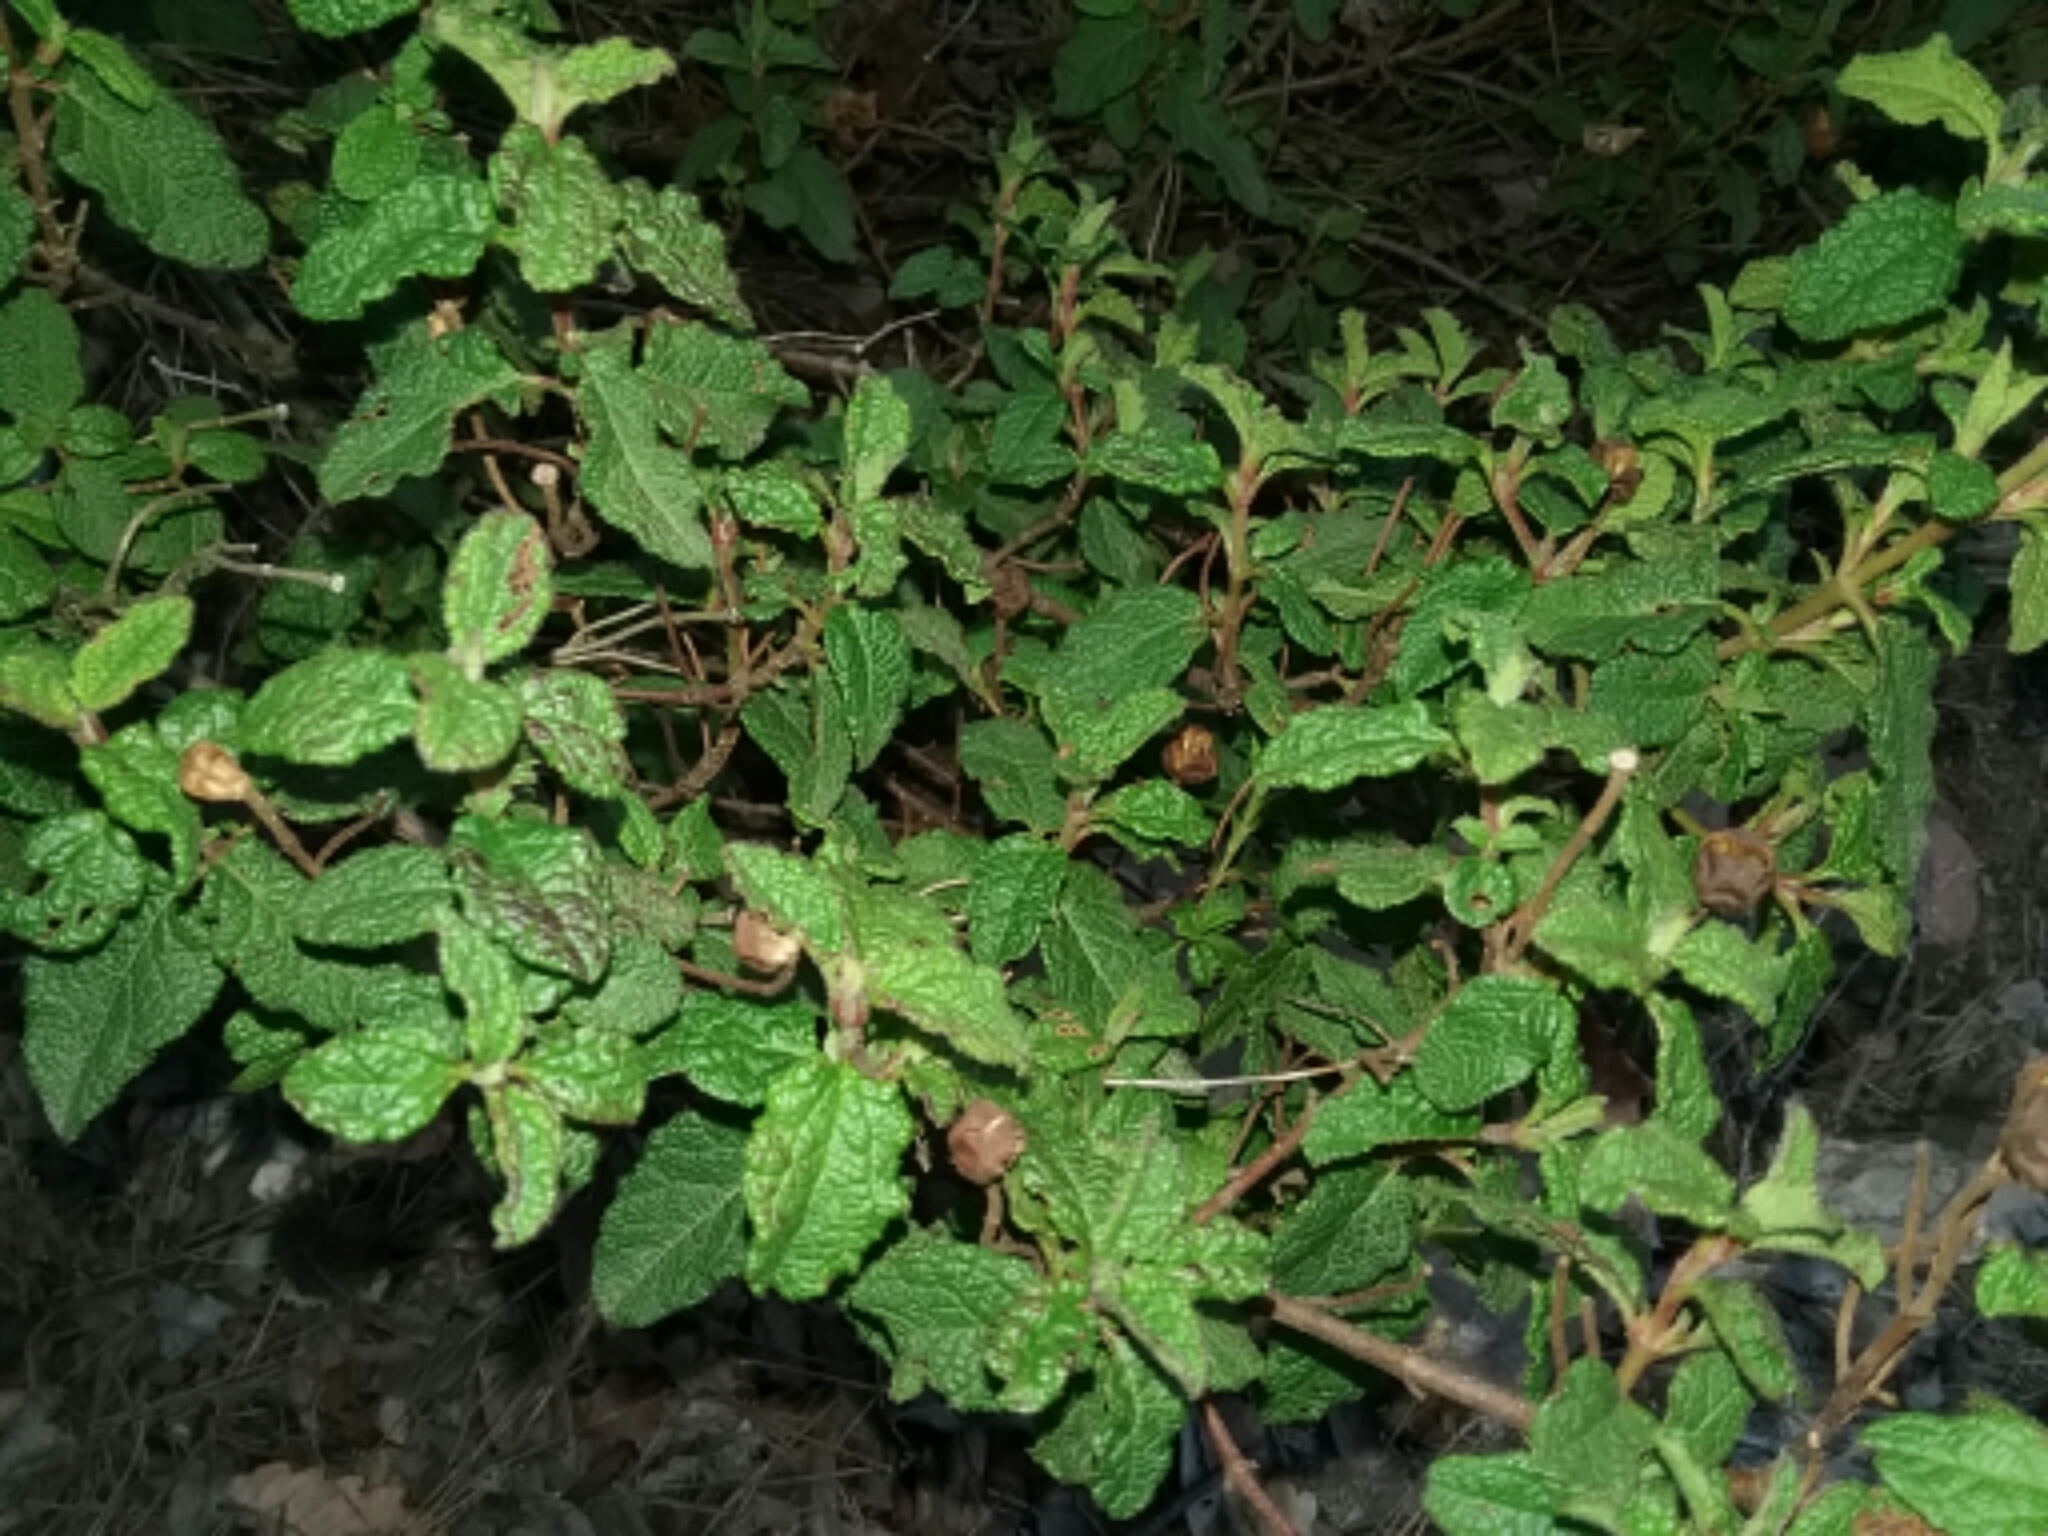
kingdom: Plantae
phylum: Tracheophyta
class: Magnoliopsida
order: Malvales
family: Cistaceae
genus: Cistus
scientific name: Cistus salviifolius
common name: Salvia cistus
